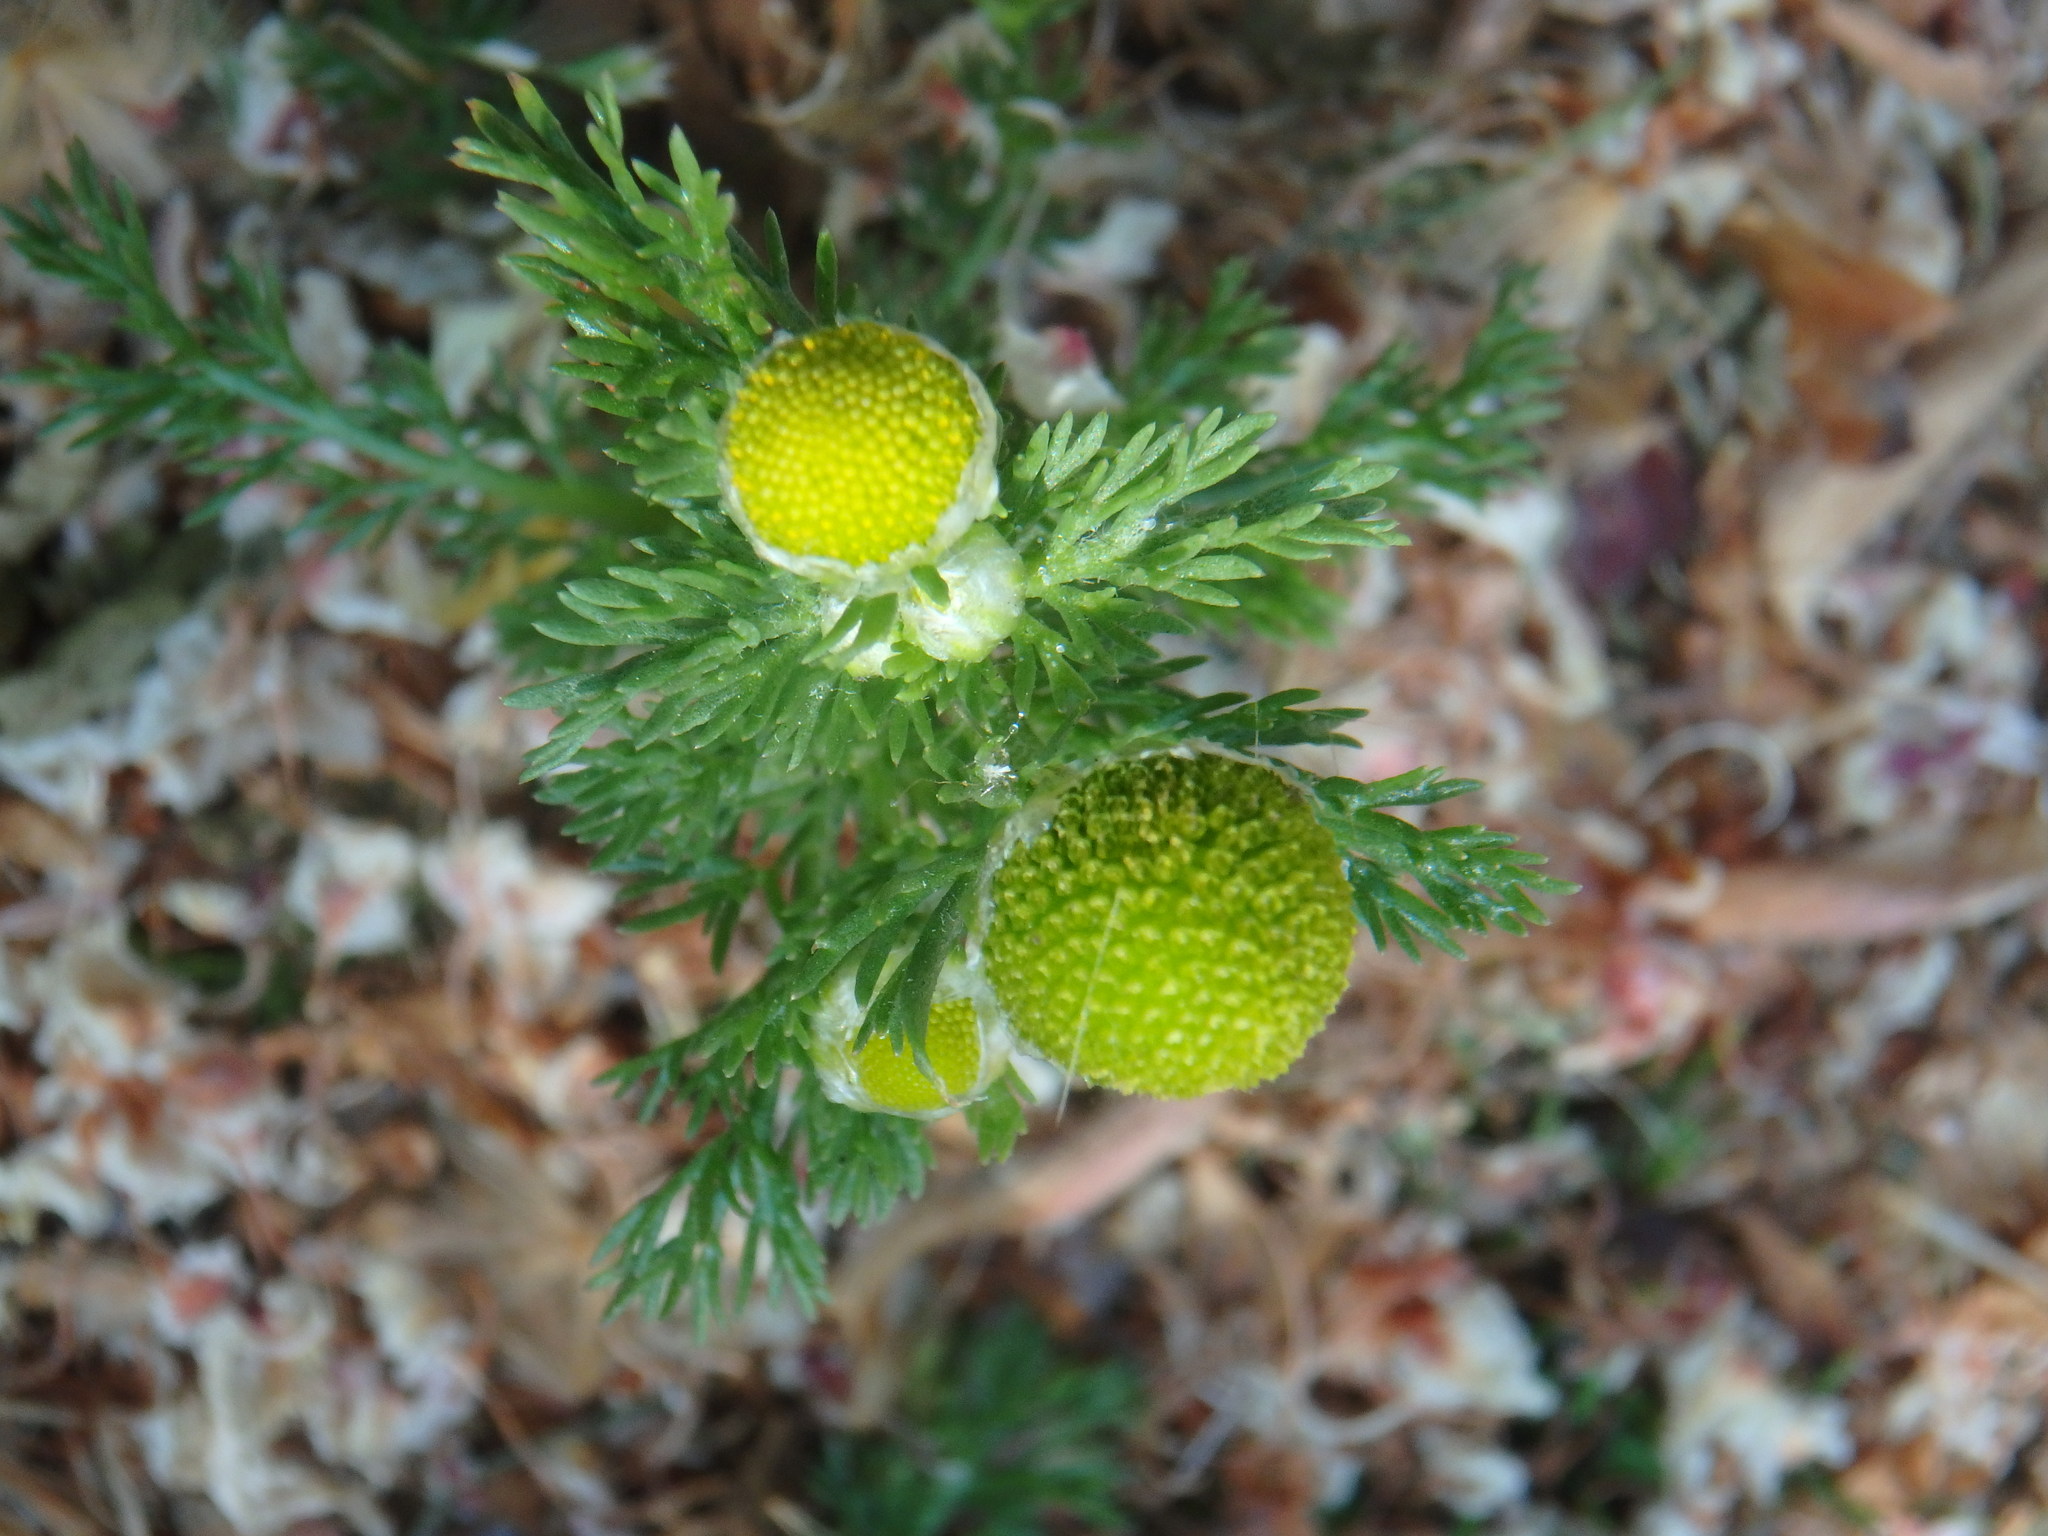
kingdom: Plantae
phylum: Tracheophyta
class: Magnoliopsida
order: Asterales
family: Asteraceae
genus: Matricaria
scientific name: Matricaria discoidea
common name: Disc mayweed
